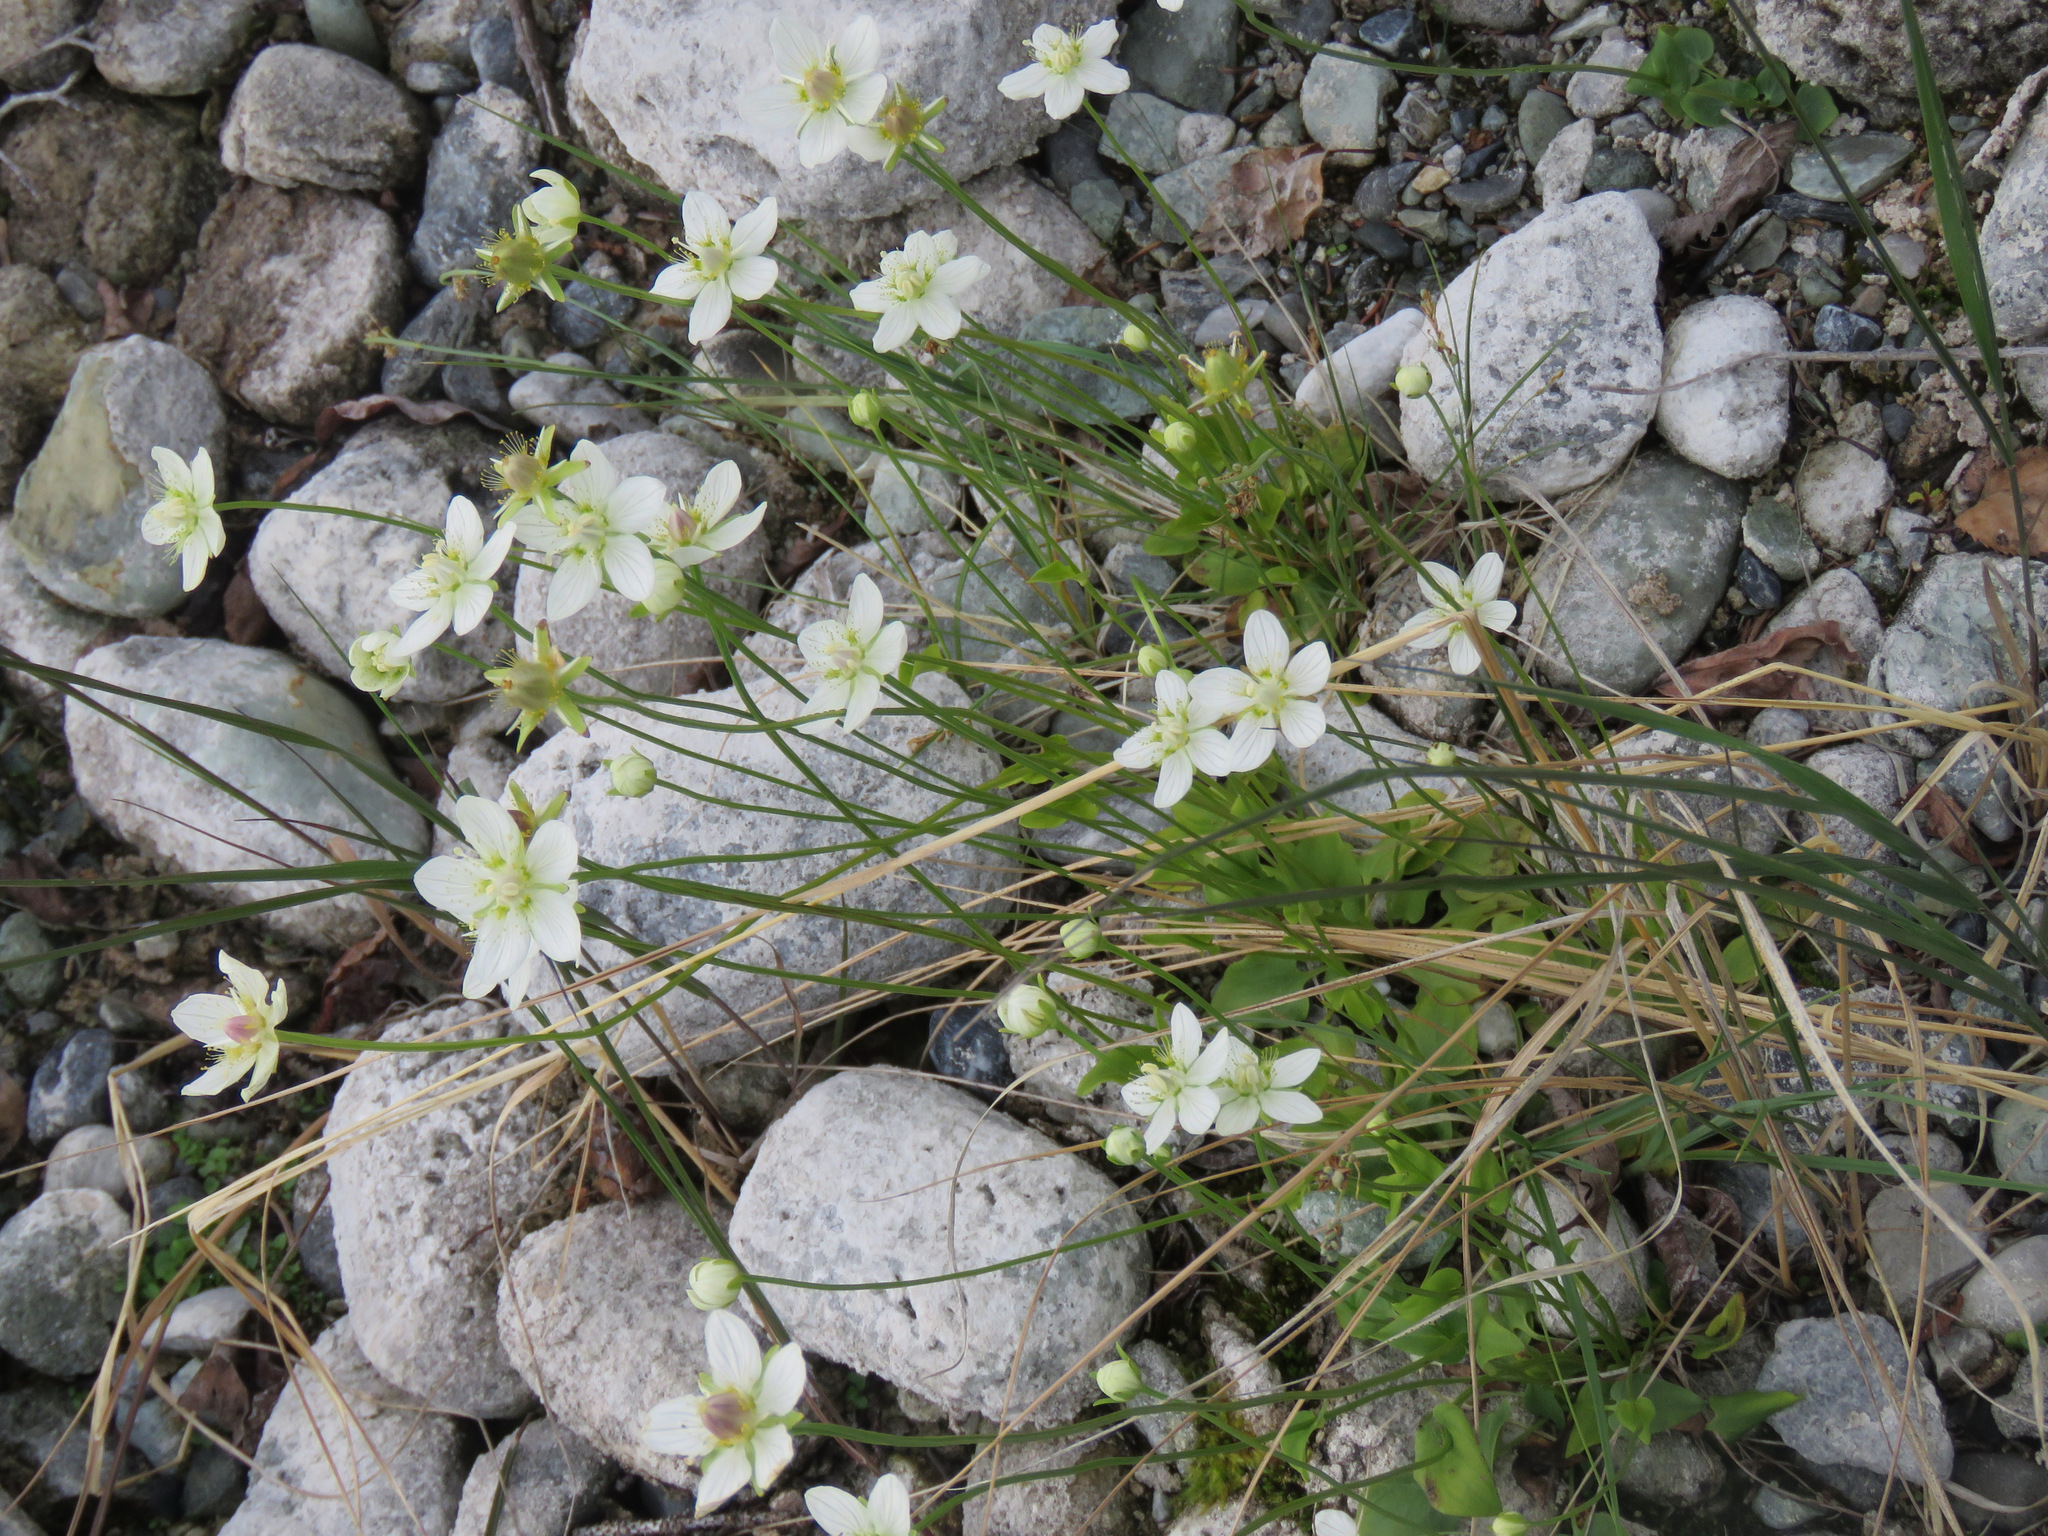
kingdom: Plantae
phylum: Tracheophyta
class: Magnoliopsida
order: Celastrales
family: Parnassiaceae
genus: Parnassia
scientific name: Parnassia palustris
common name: Grass-of-parnassus
